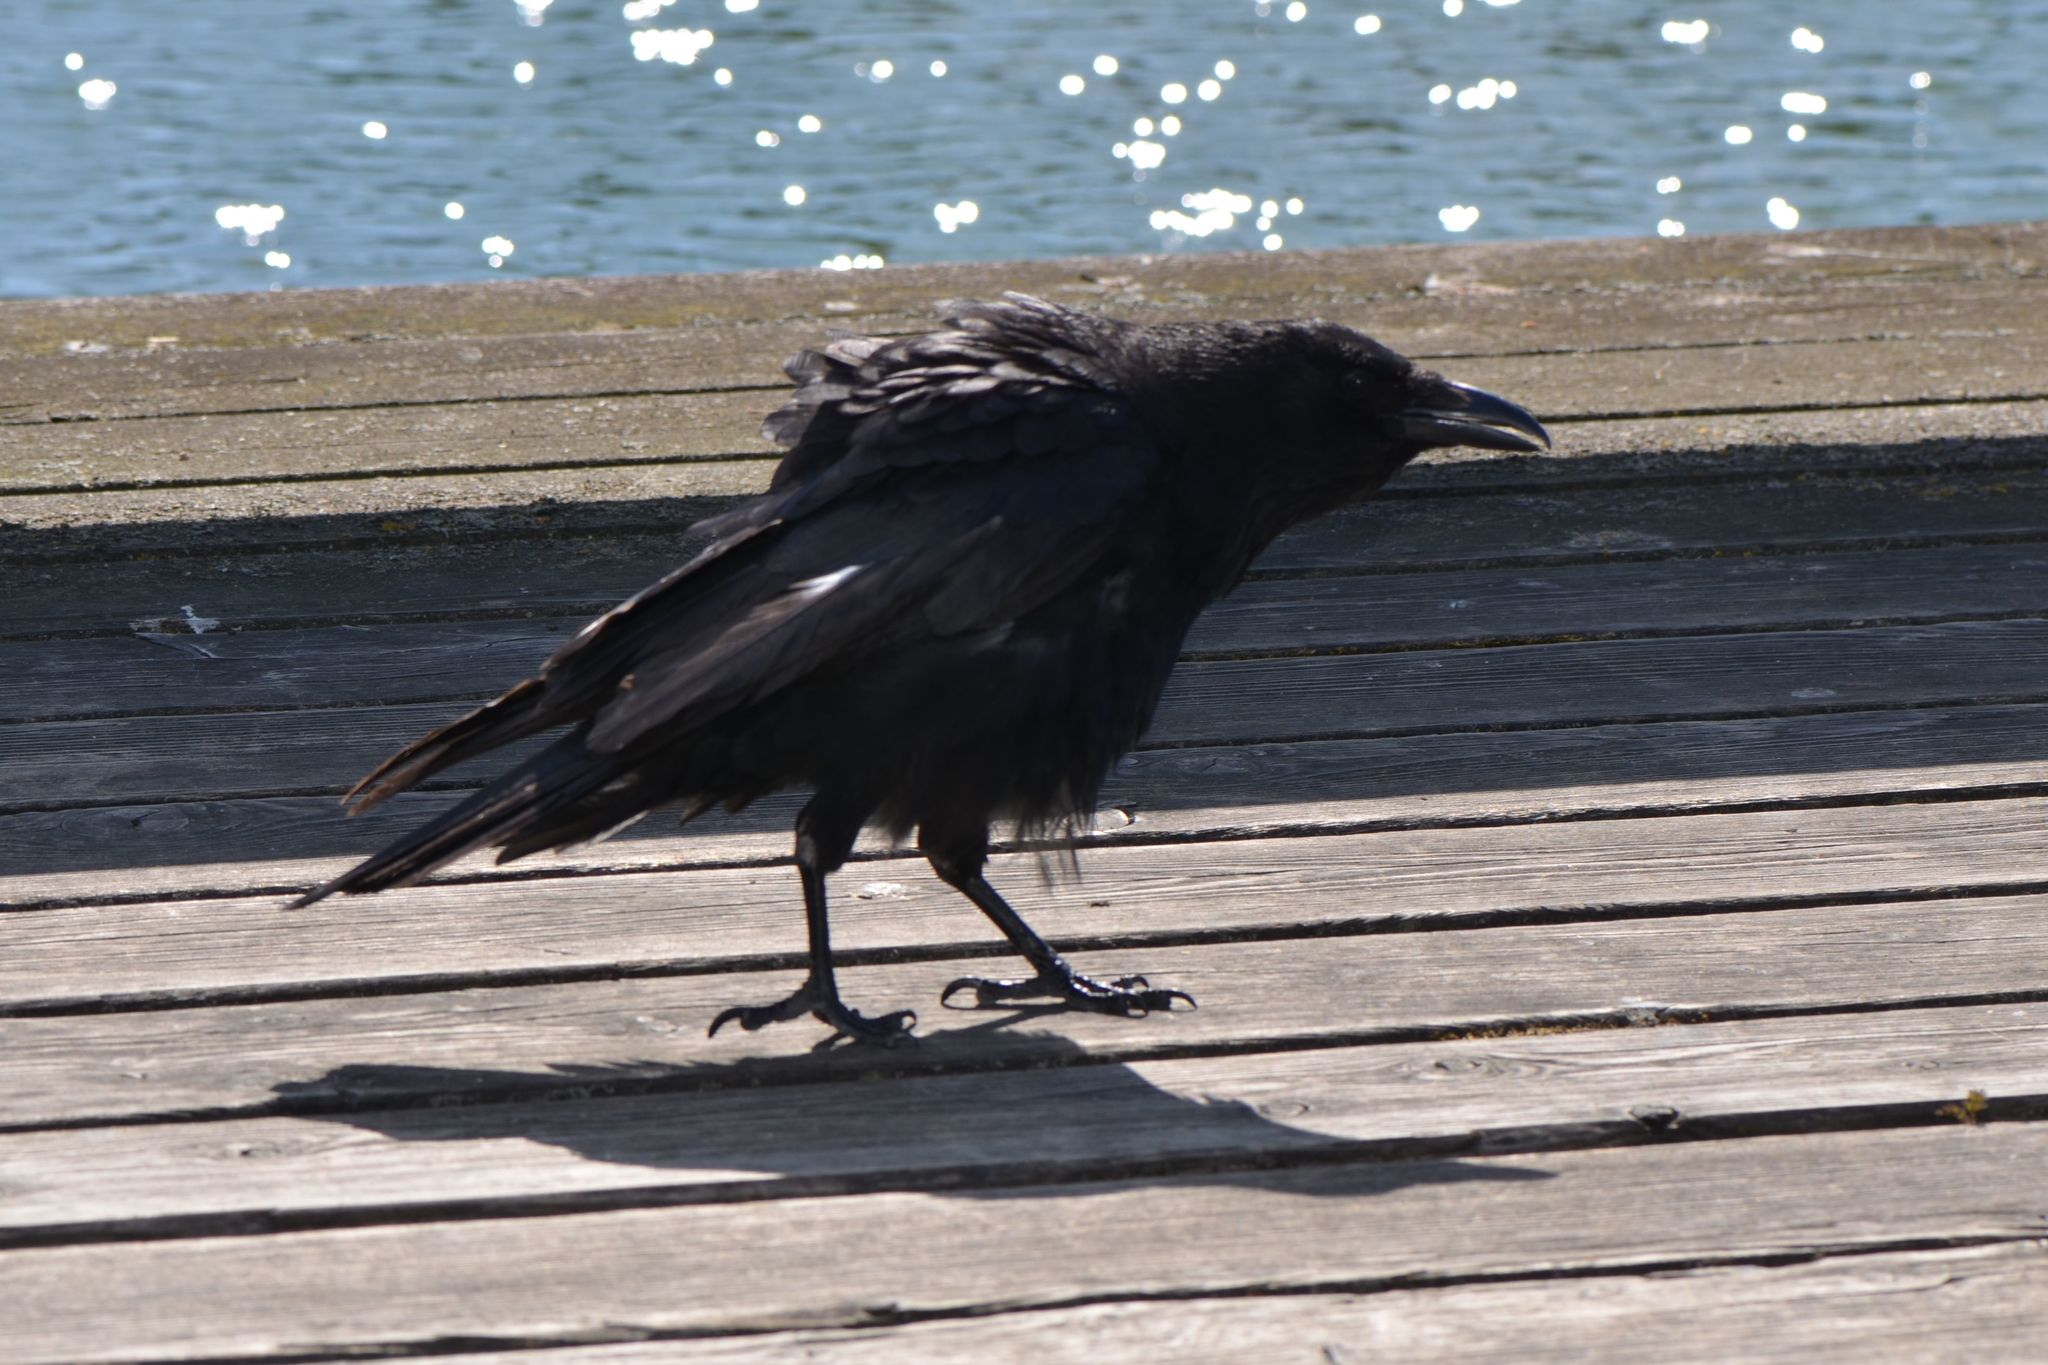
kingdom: Animalia
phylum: Chordata
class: Aves
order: Passeriformes
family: Corvidae
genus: Corvus
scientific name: Corvus corone
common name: Carrion crow
